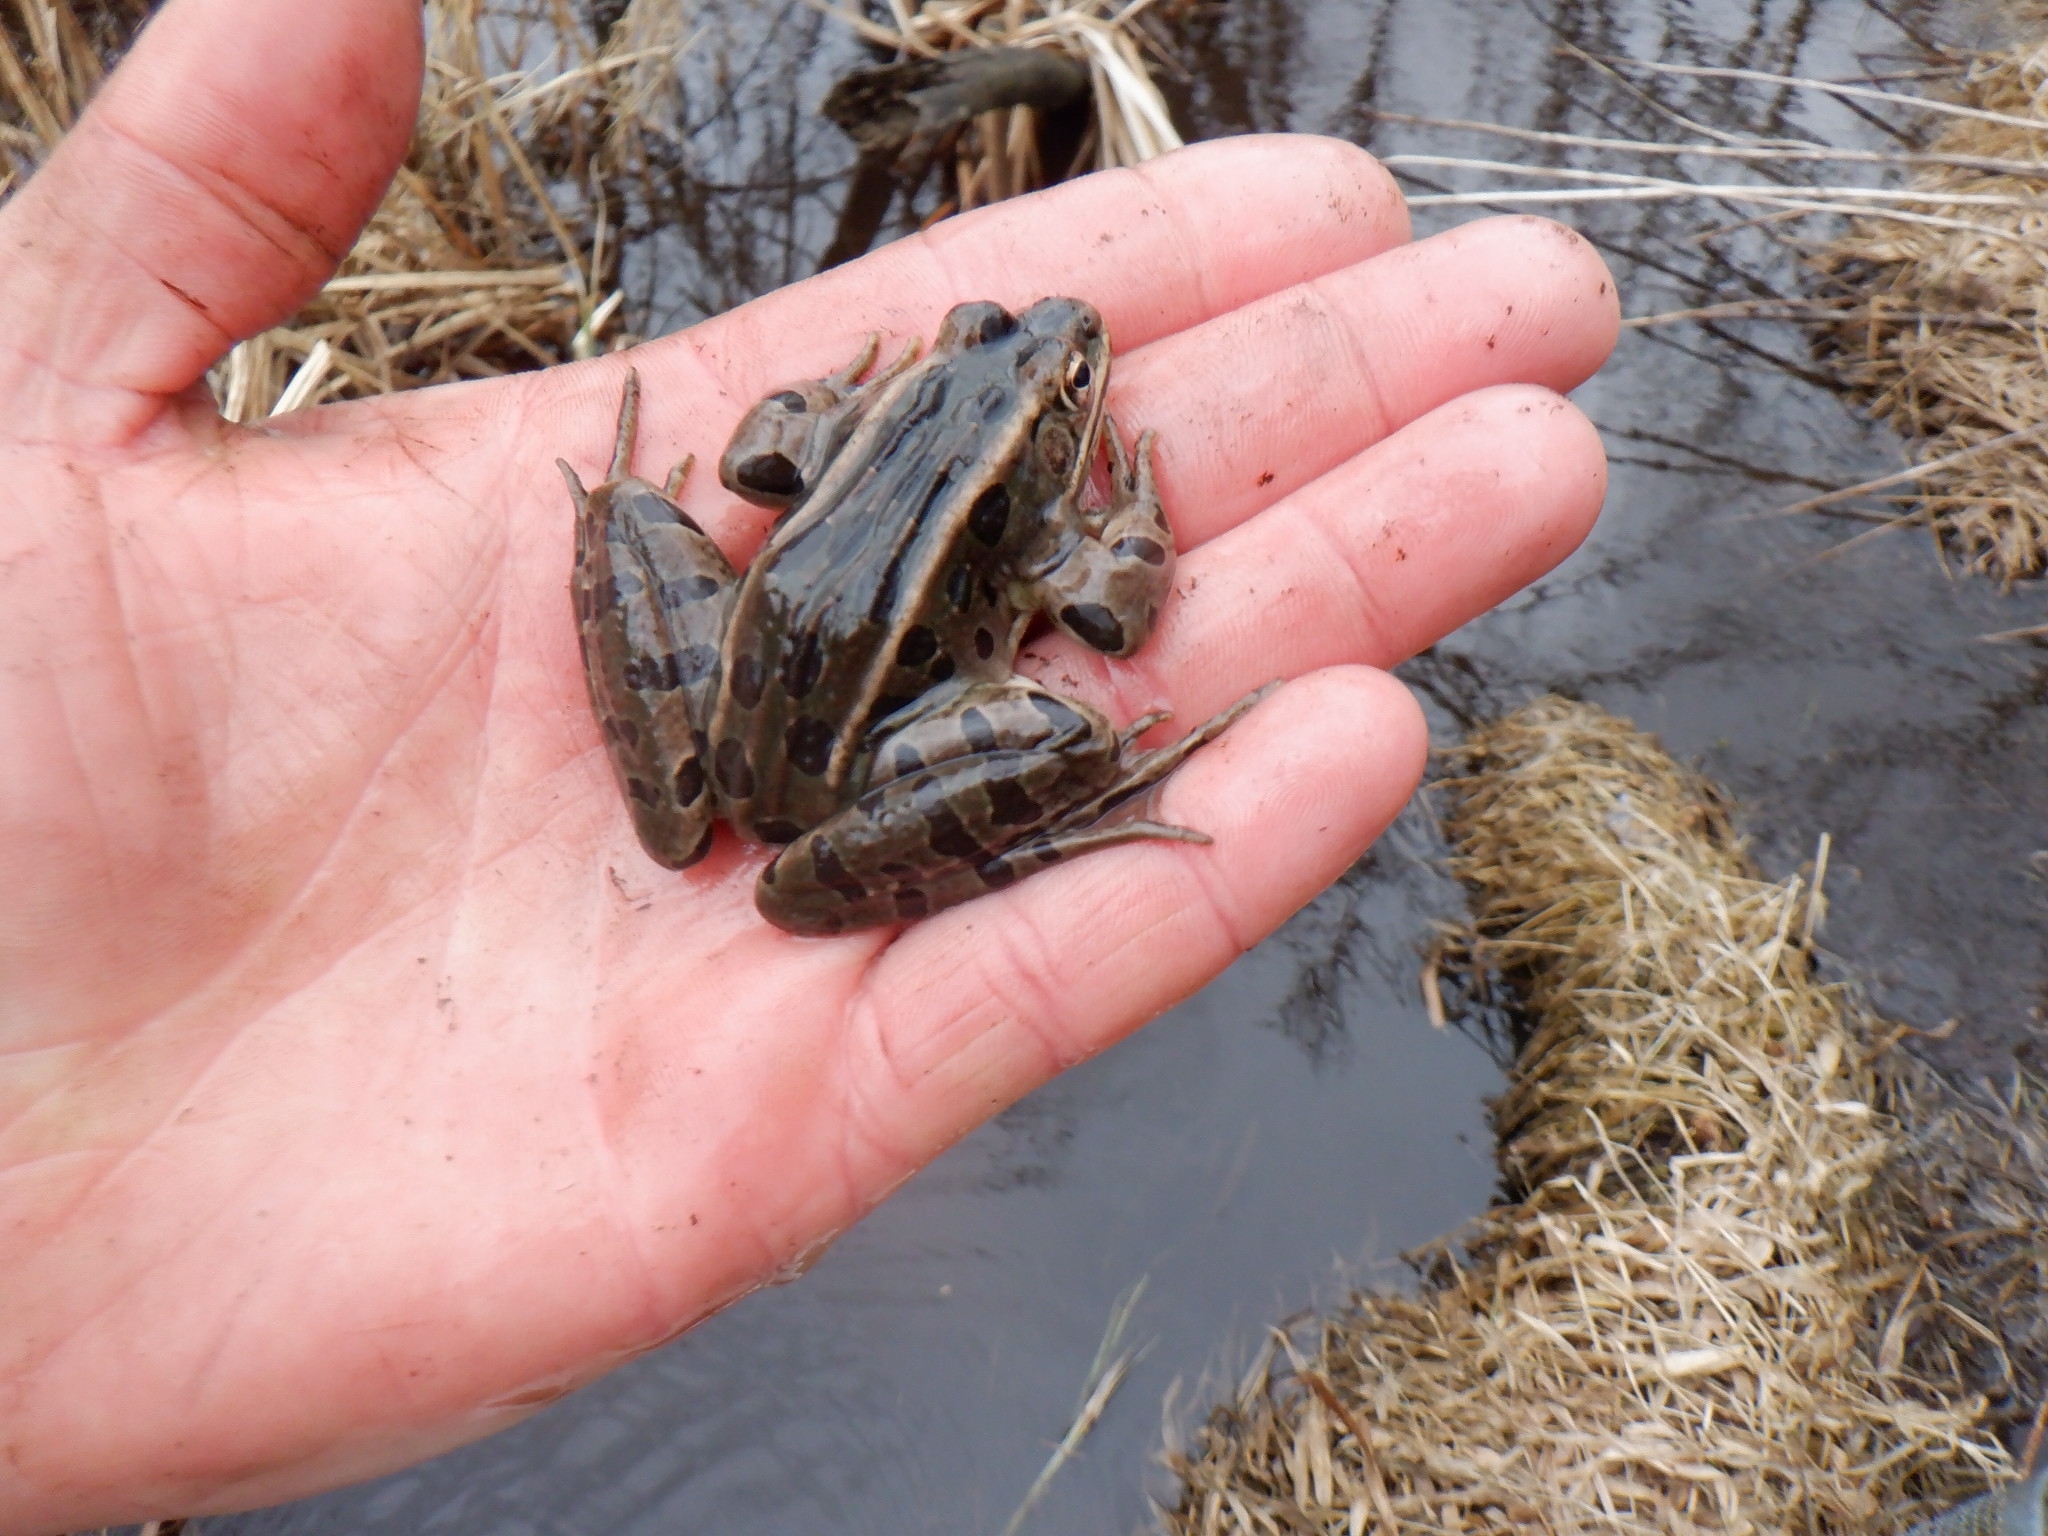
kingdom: Animalia
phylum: Chordata
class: Amphibia
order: Anura
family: Ranidae
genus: Lithobates
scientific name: Lithobates pipiens
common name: Northern leopard frog
